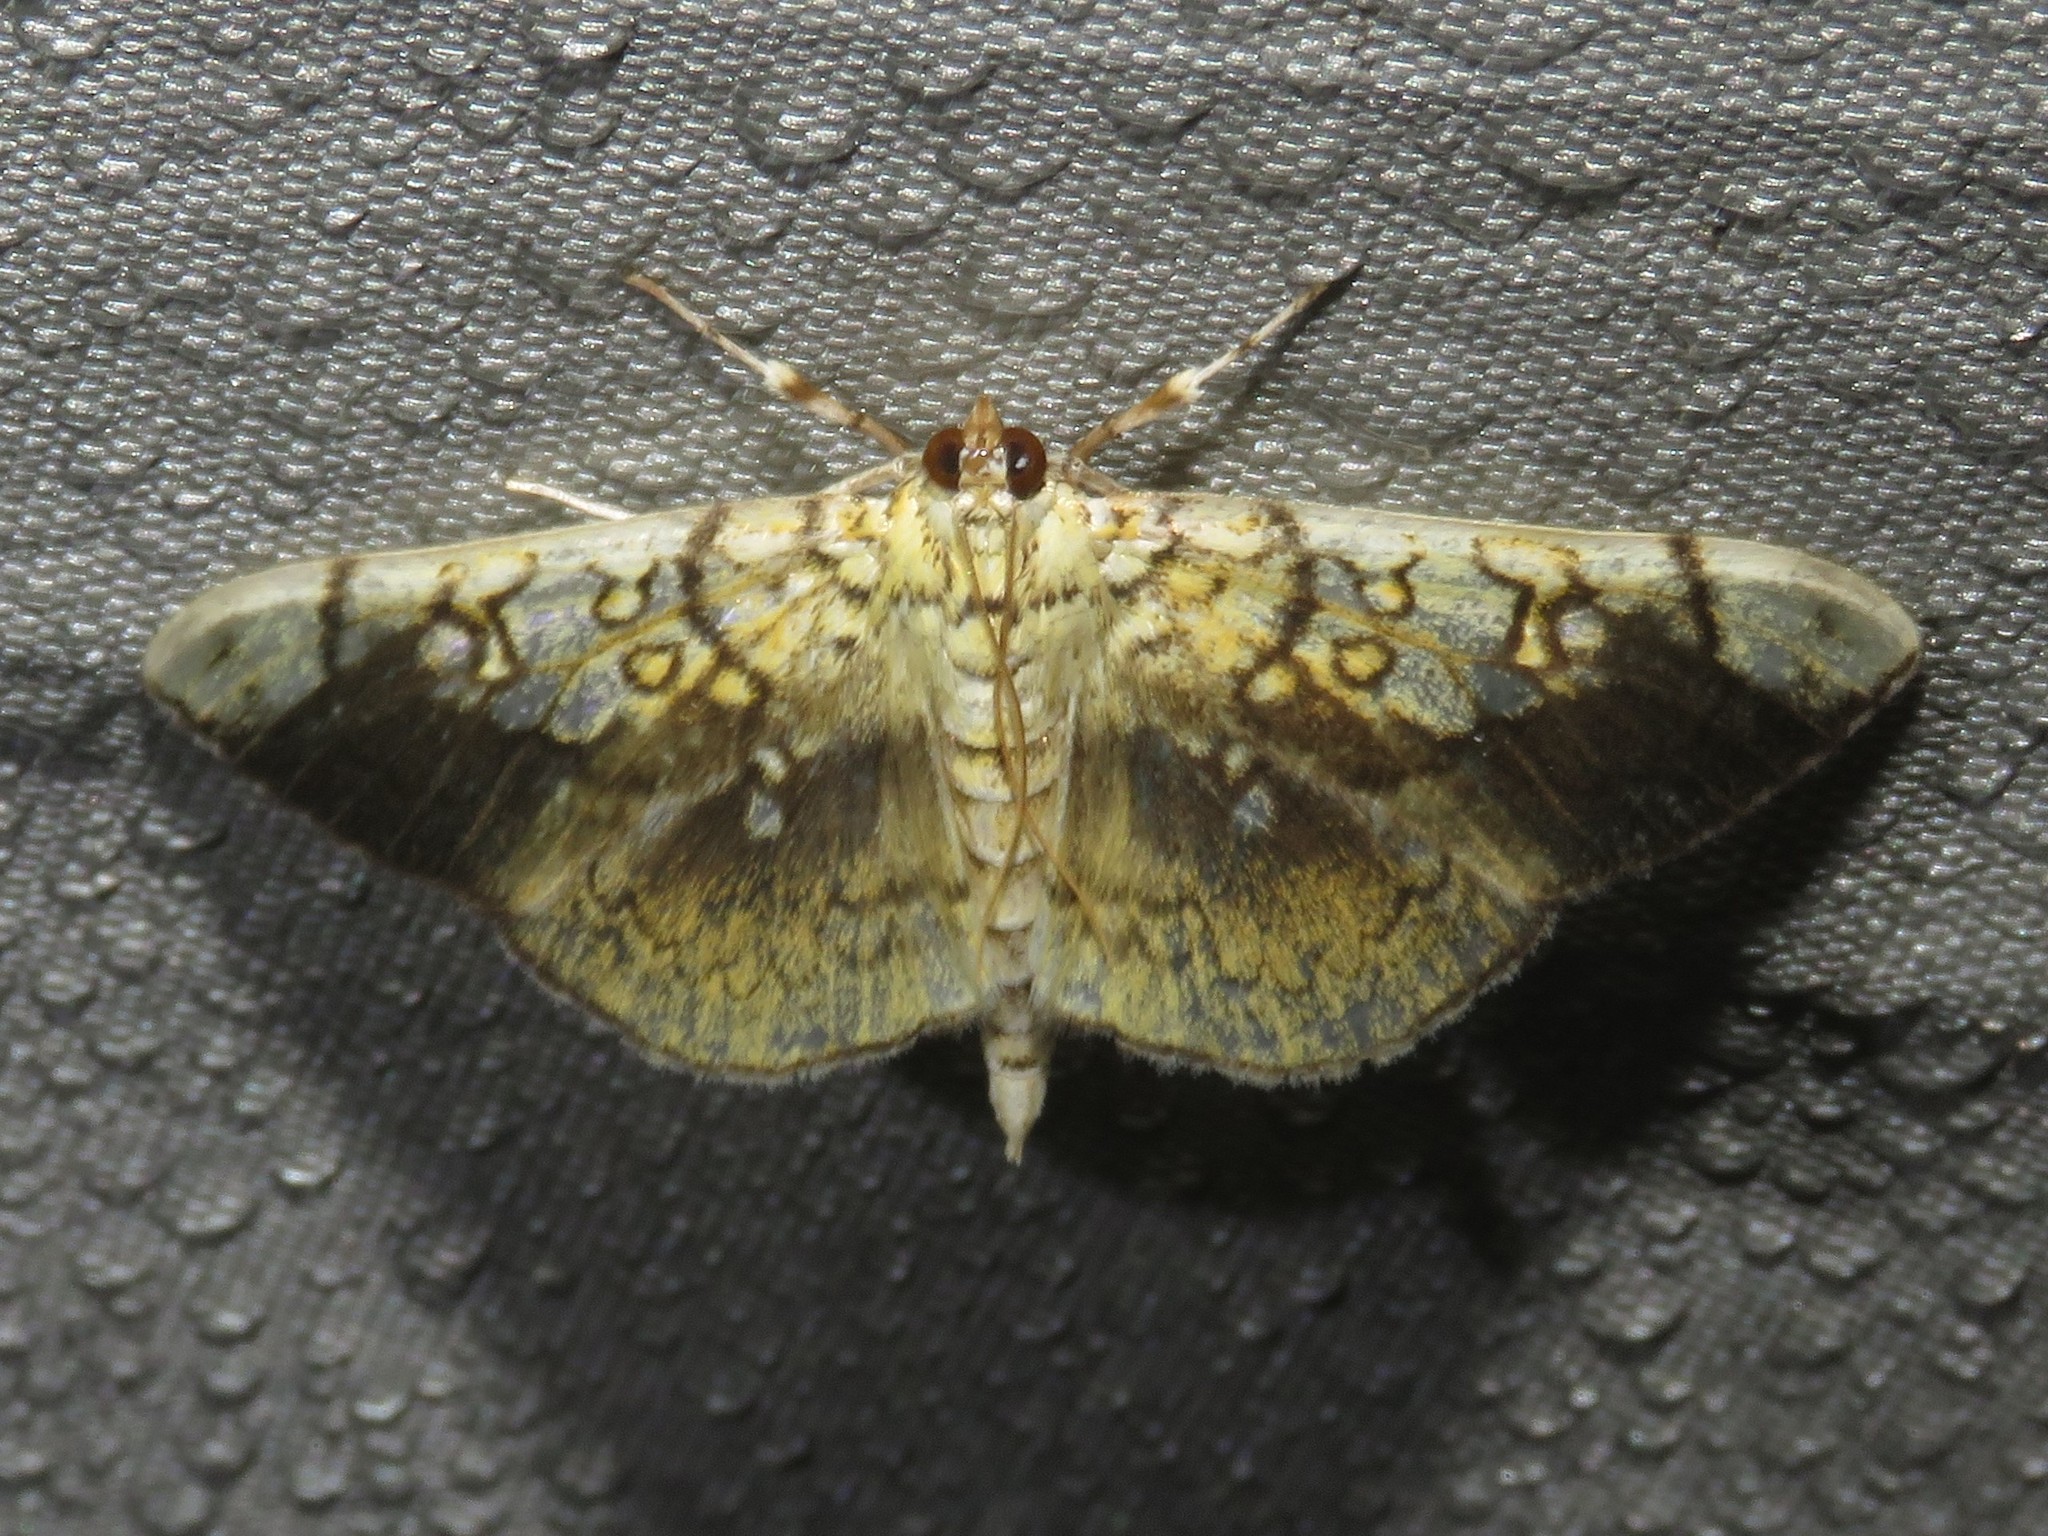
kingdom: Animalia
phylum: Arthropoda
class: Insecta
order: Lepidoptera
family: Crambidae
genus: Pantographa
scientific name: Pantographa limata
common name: Basswood leafroller moth
